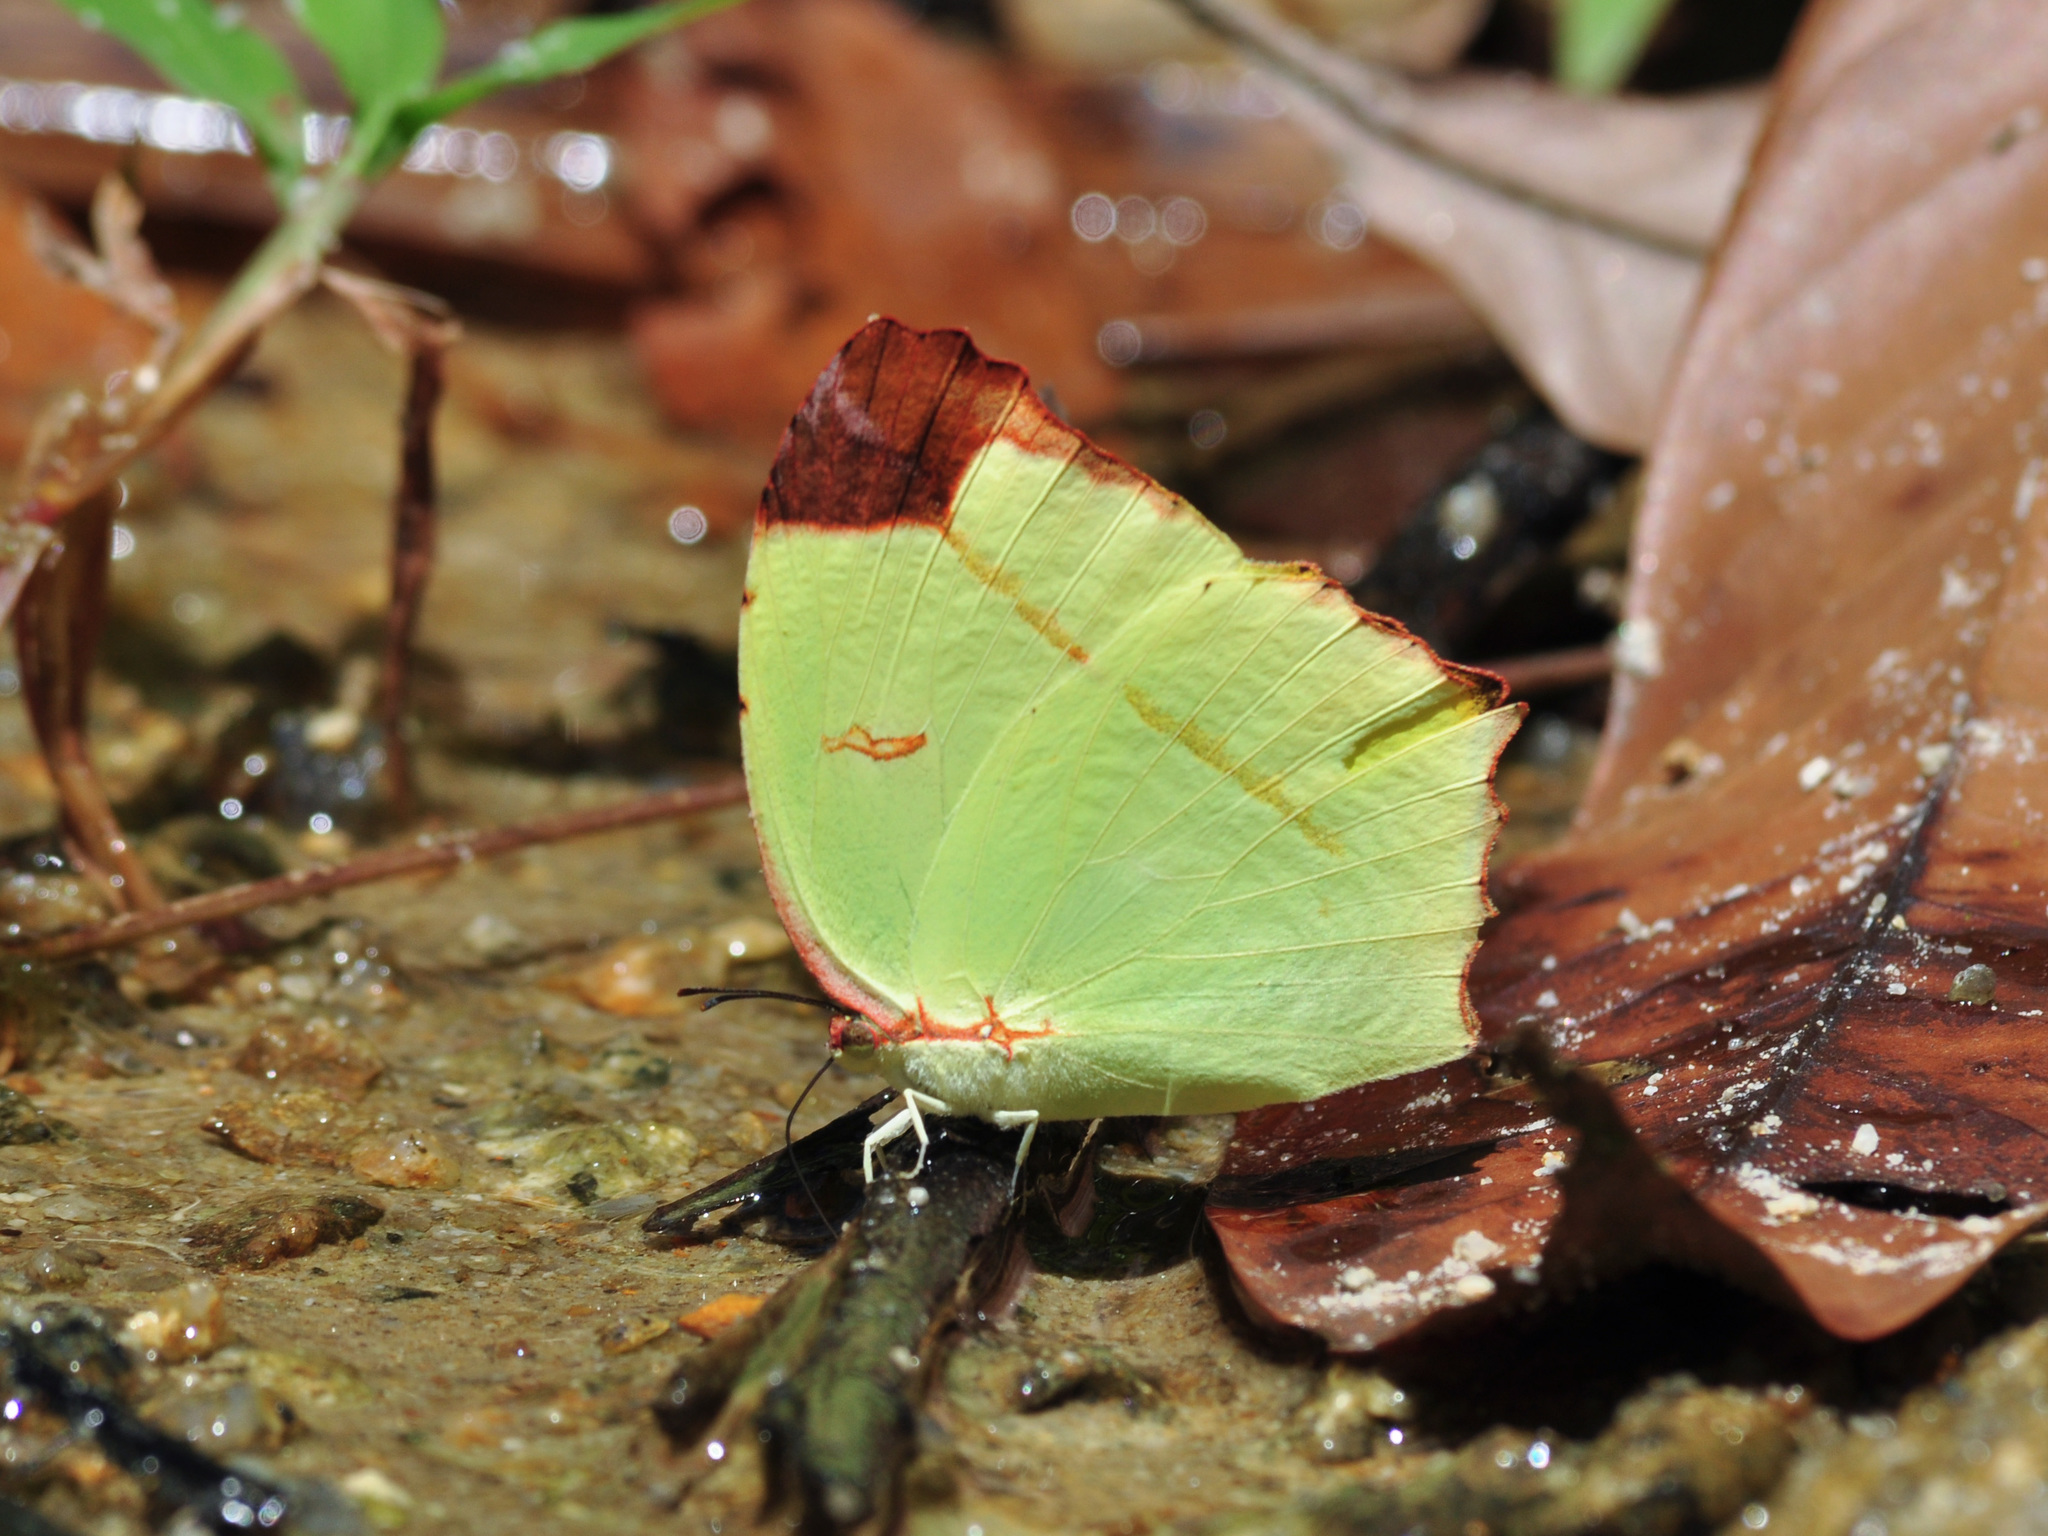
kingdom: Animalia
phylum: Arthropoda
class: Insecta
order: Lepidoptera
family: Pieridae
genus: Dercas
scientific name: Dercas gobrias
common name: Angled sulfur
